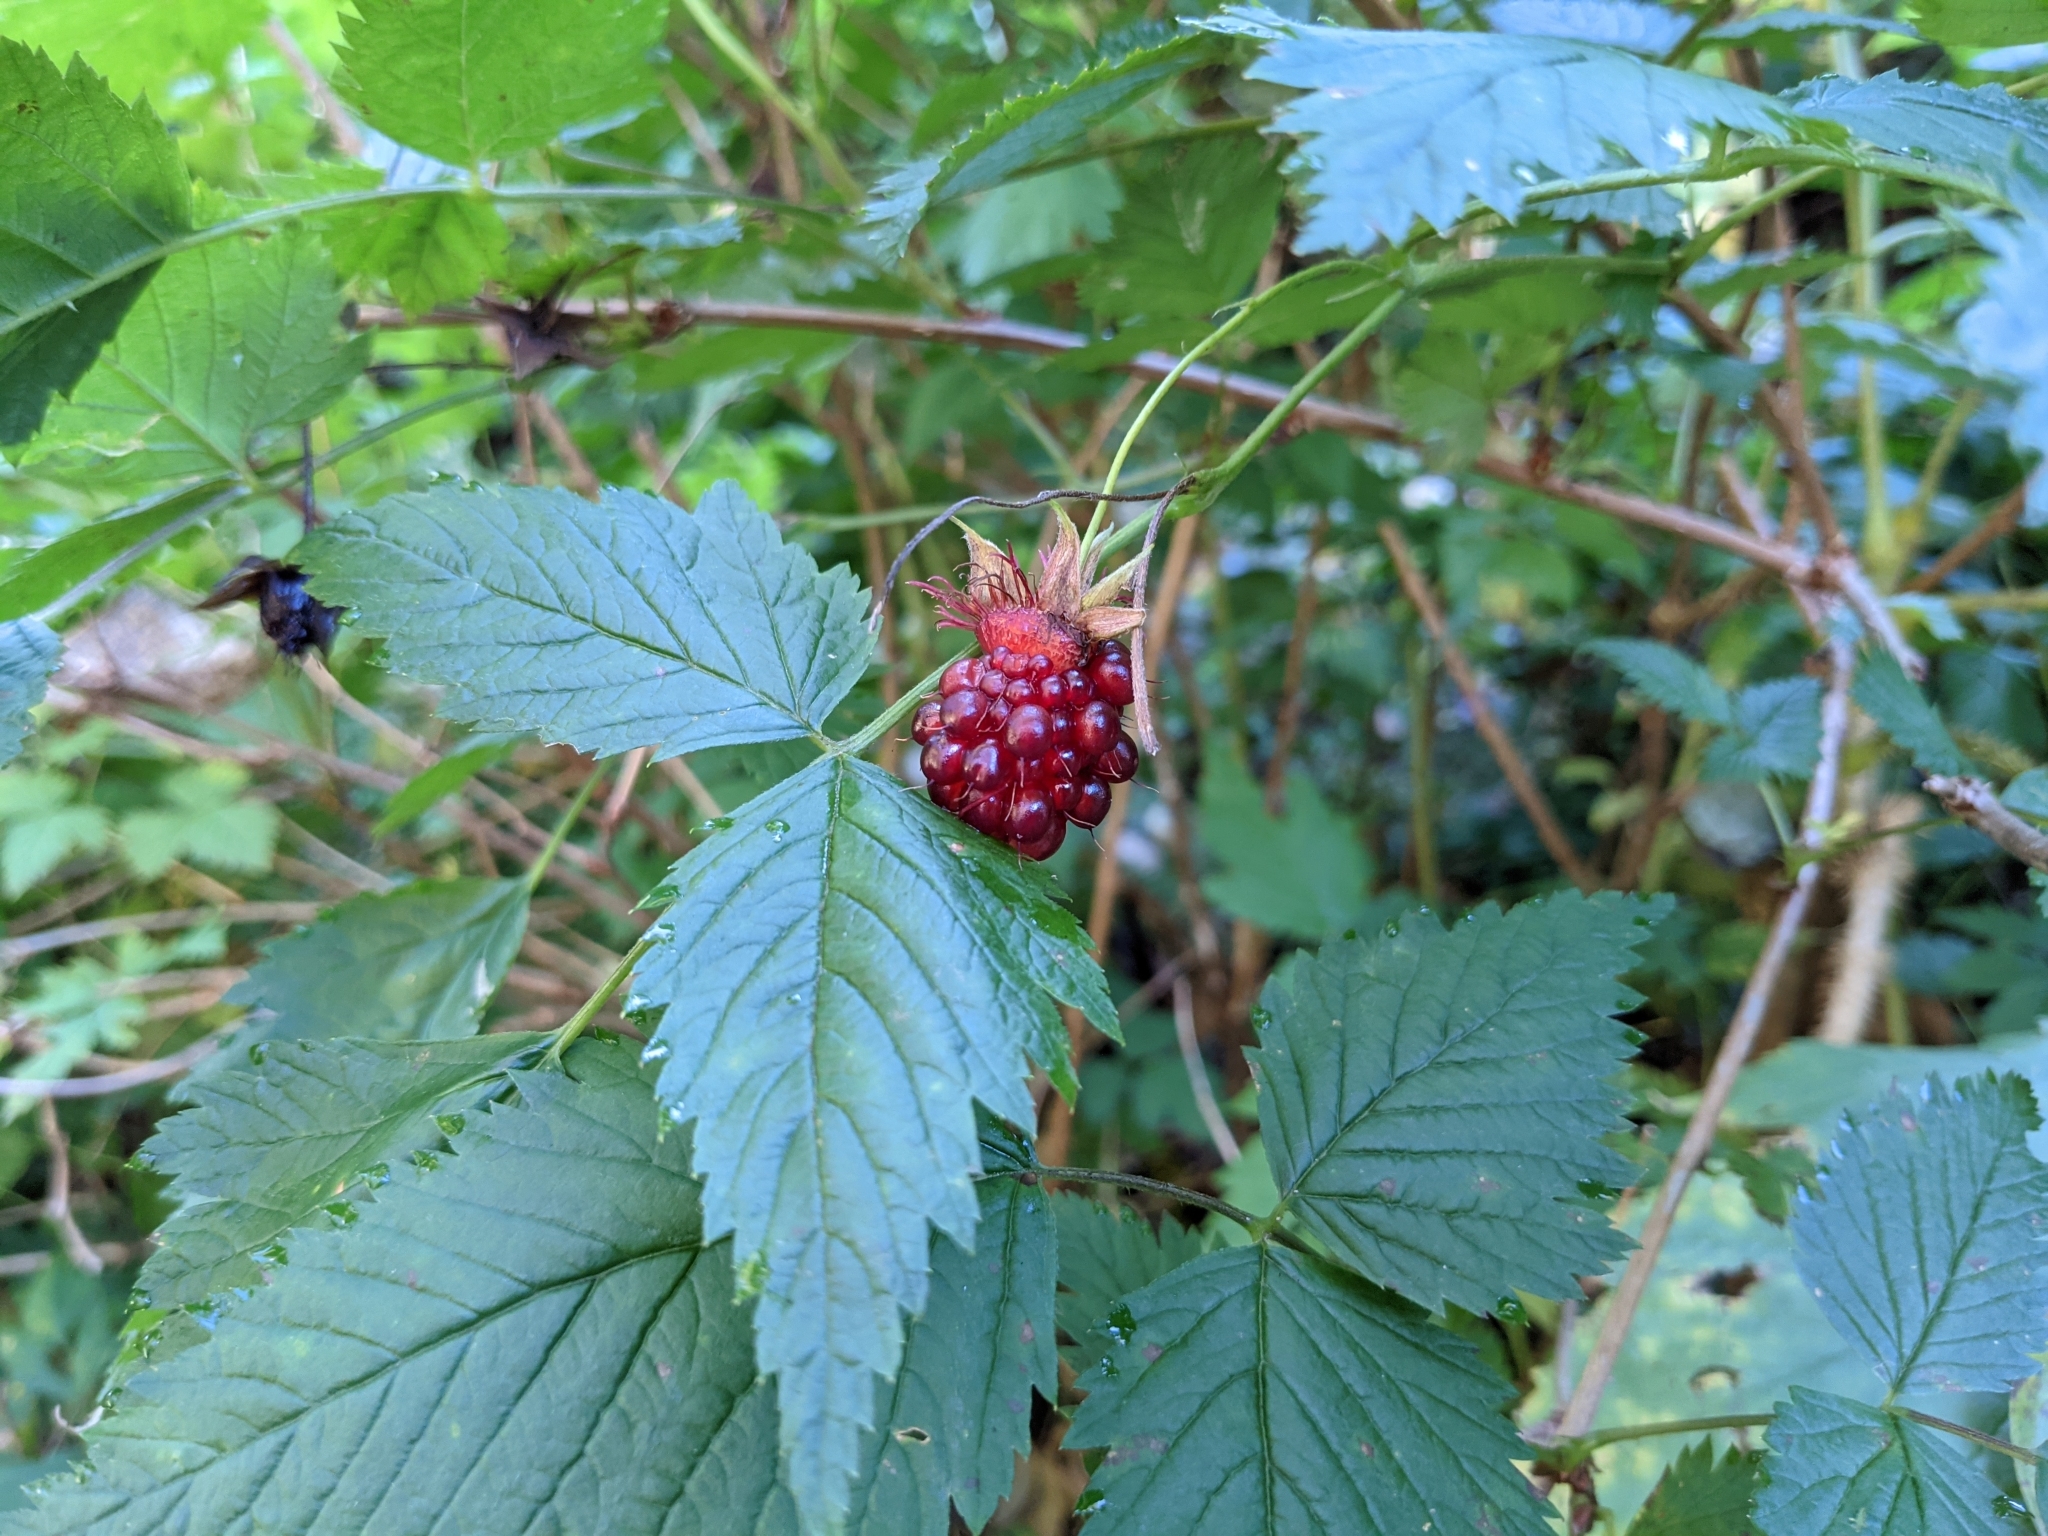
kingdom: Plantae
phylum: Tracheophyta
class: Magnoliopsida
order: Rosales
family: Rosaceae
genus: Rubus
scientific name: Rubus spectabilis
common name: Salmonberry
